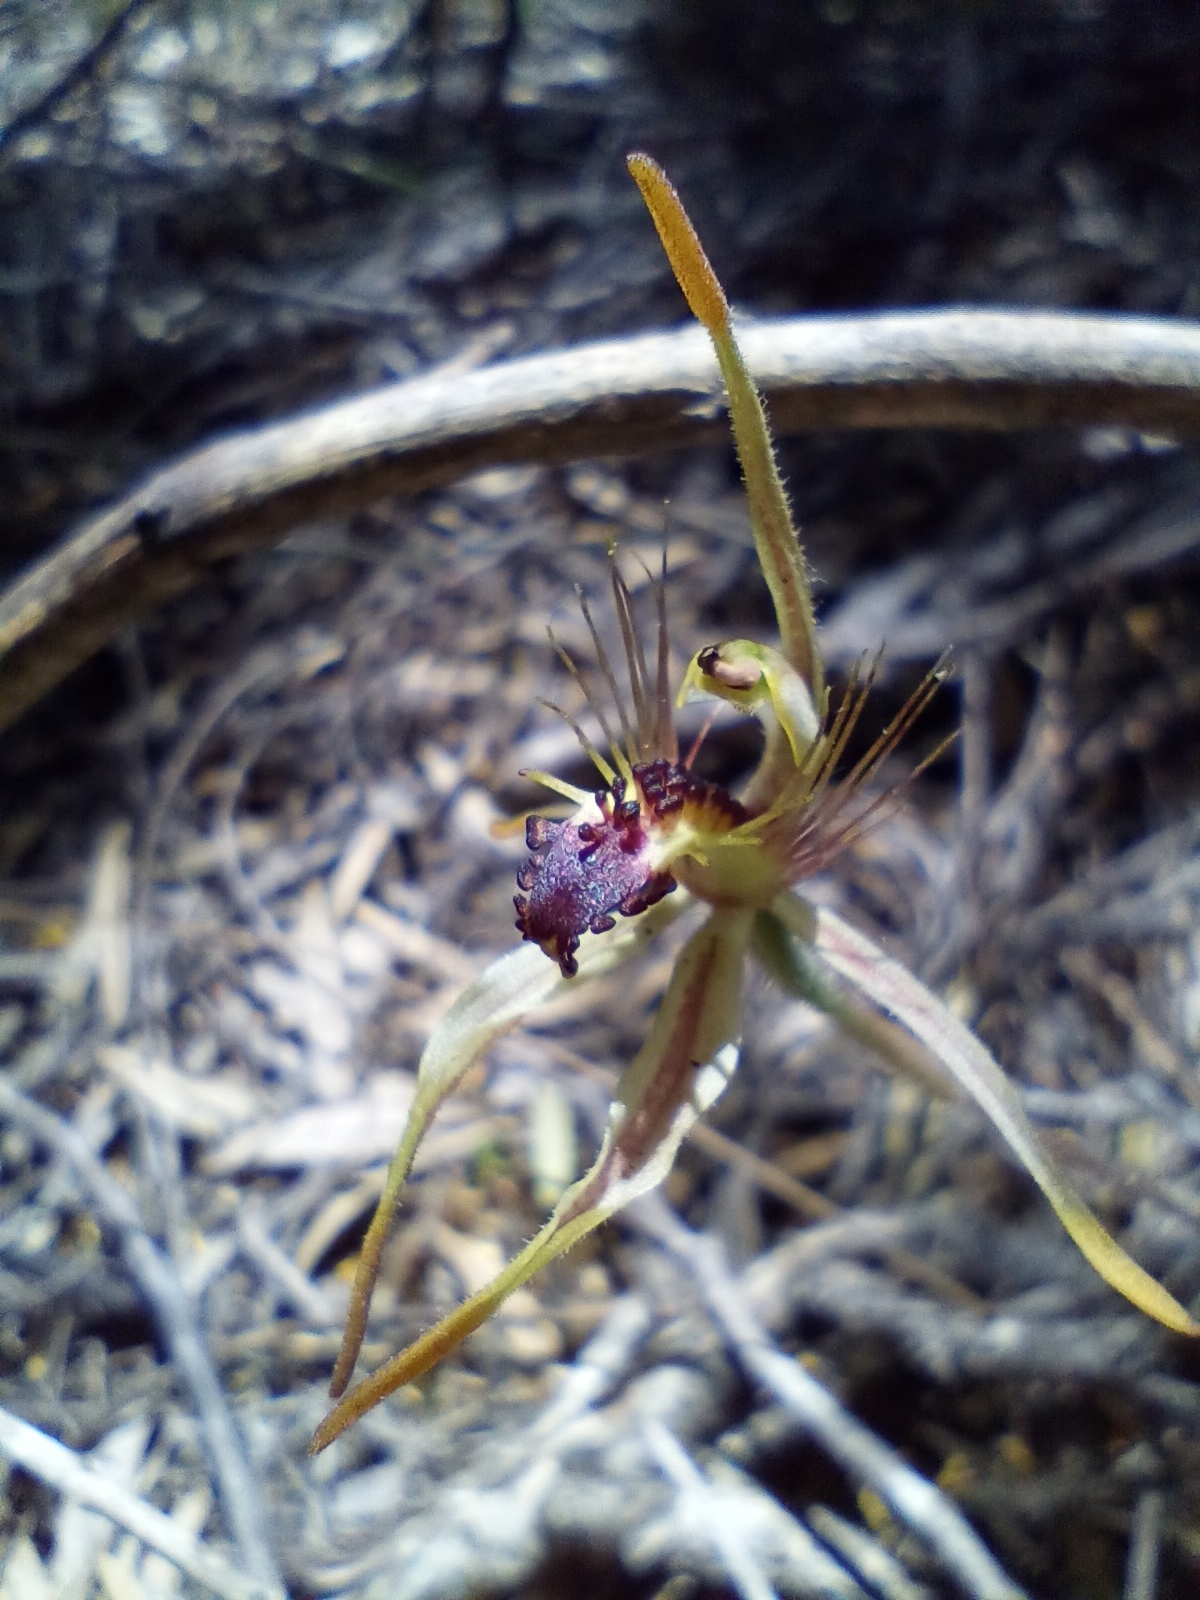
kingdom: Plantae
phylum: Tracheophyta
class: Liliopsida
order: Asparagales
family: Orchidaceae
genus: Caladenia
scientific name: Caladenia corynephora
